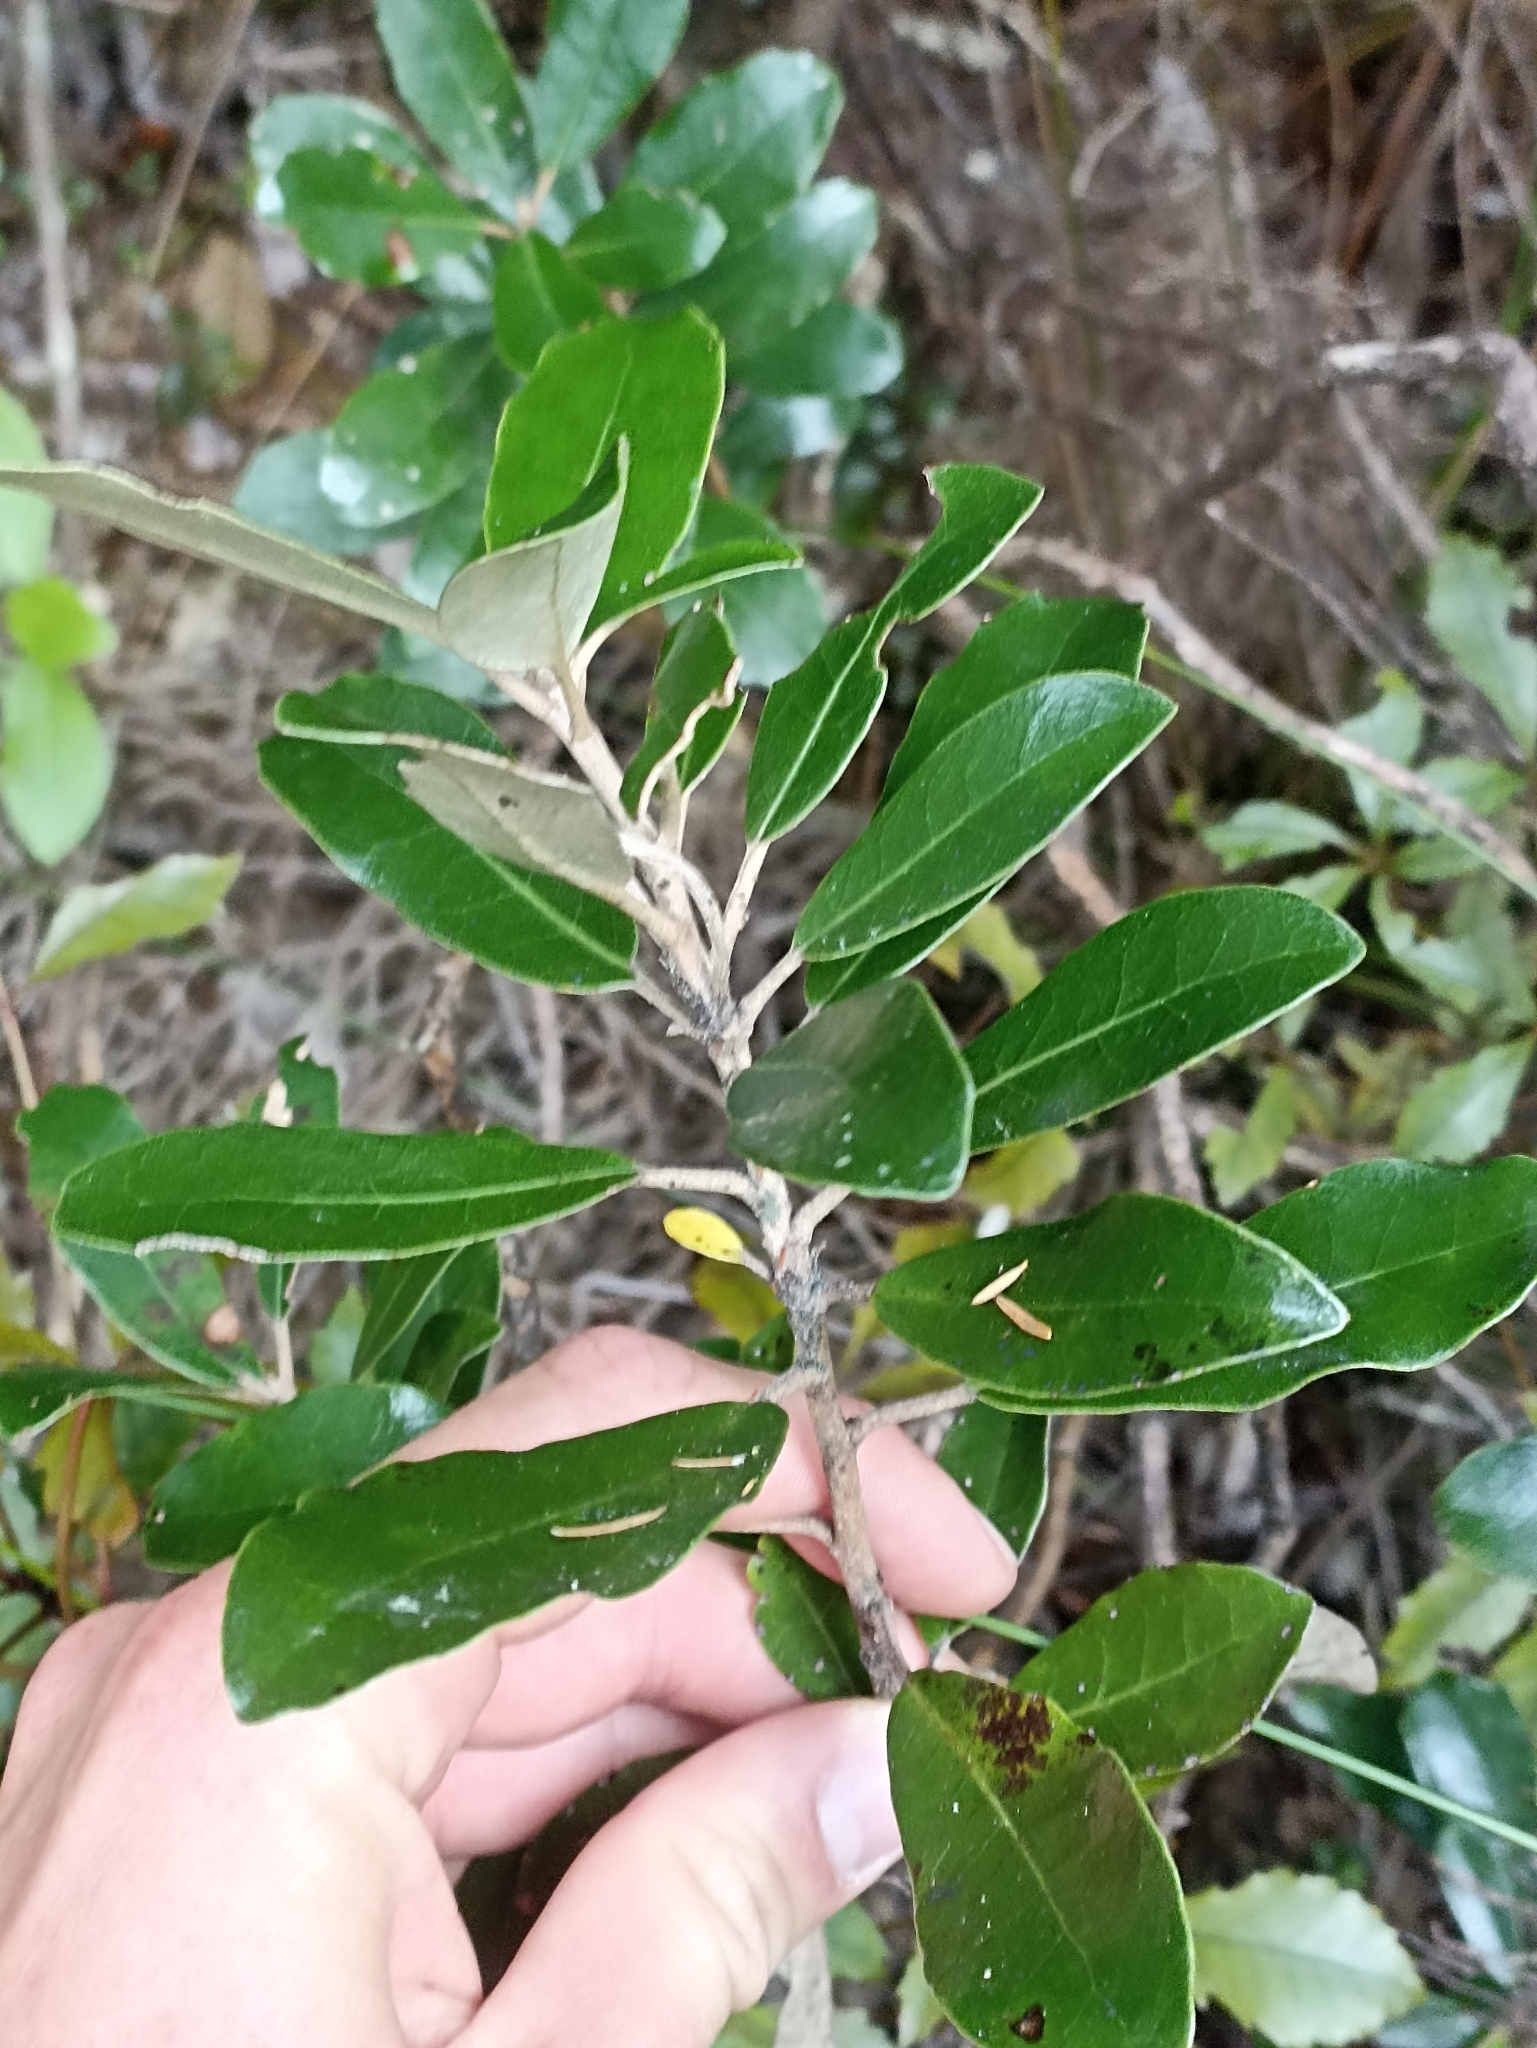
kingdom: Plantae
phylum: Tracheophyta
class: Magnoliopsida
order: Asterales
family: Asteraceae
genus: Olearia
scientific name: Olearia townsonii
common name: Coromandel tree daisy
